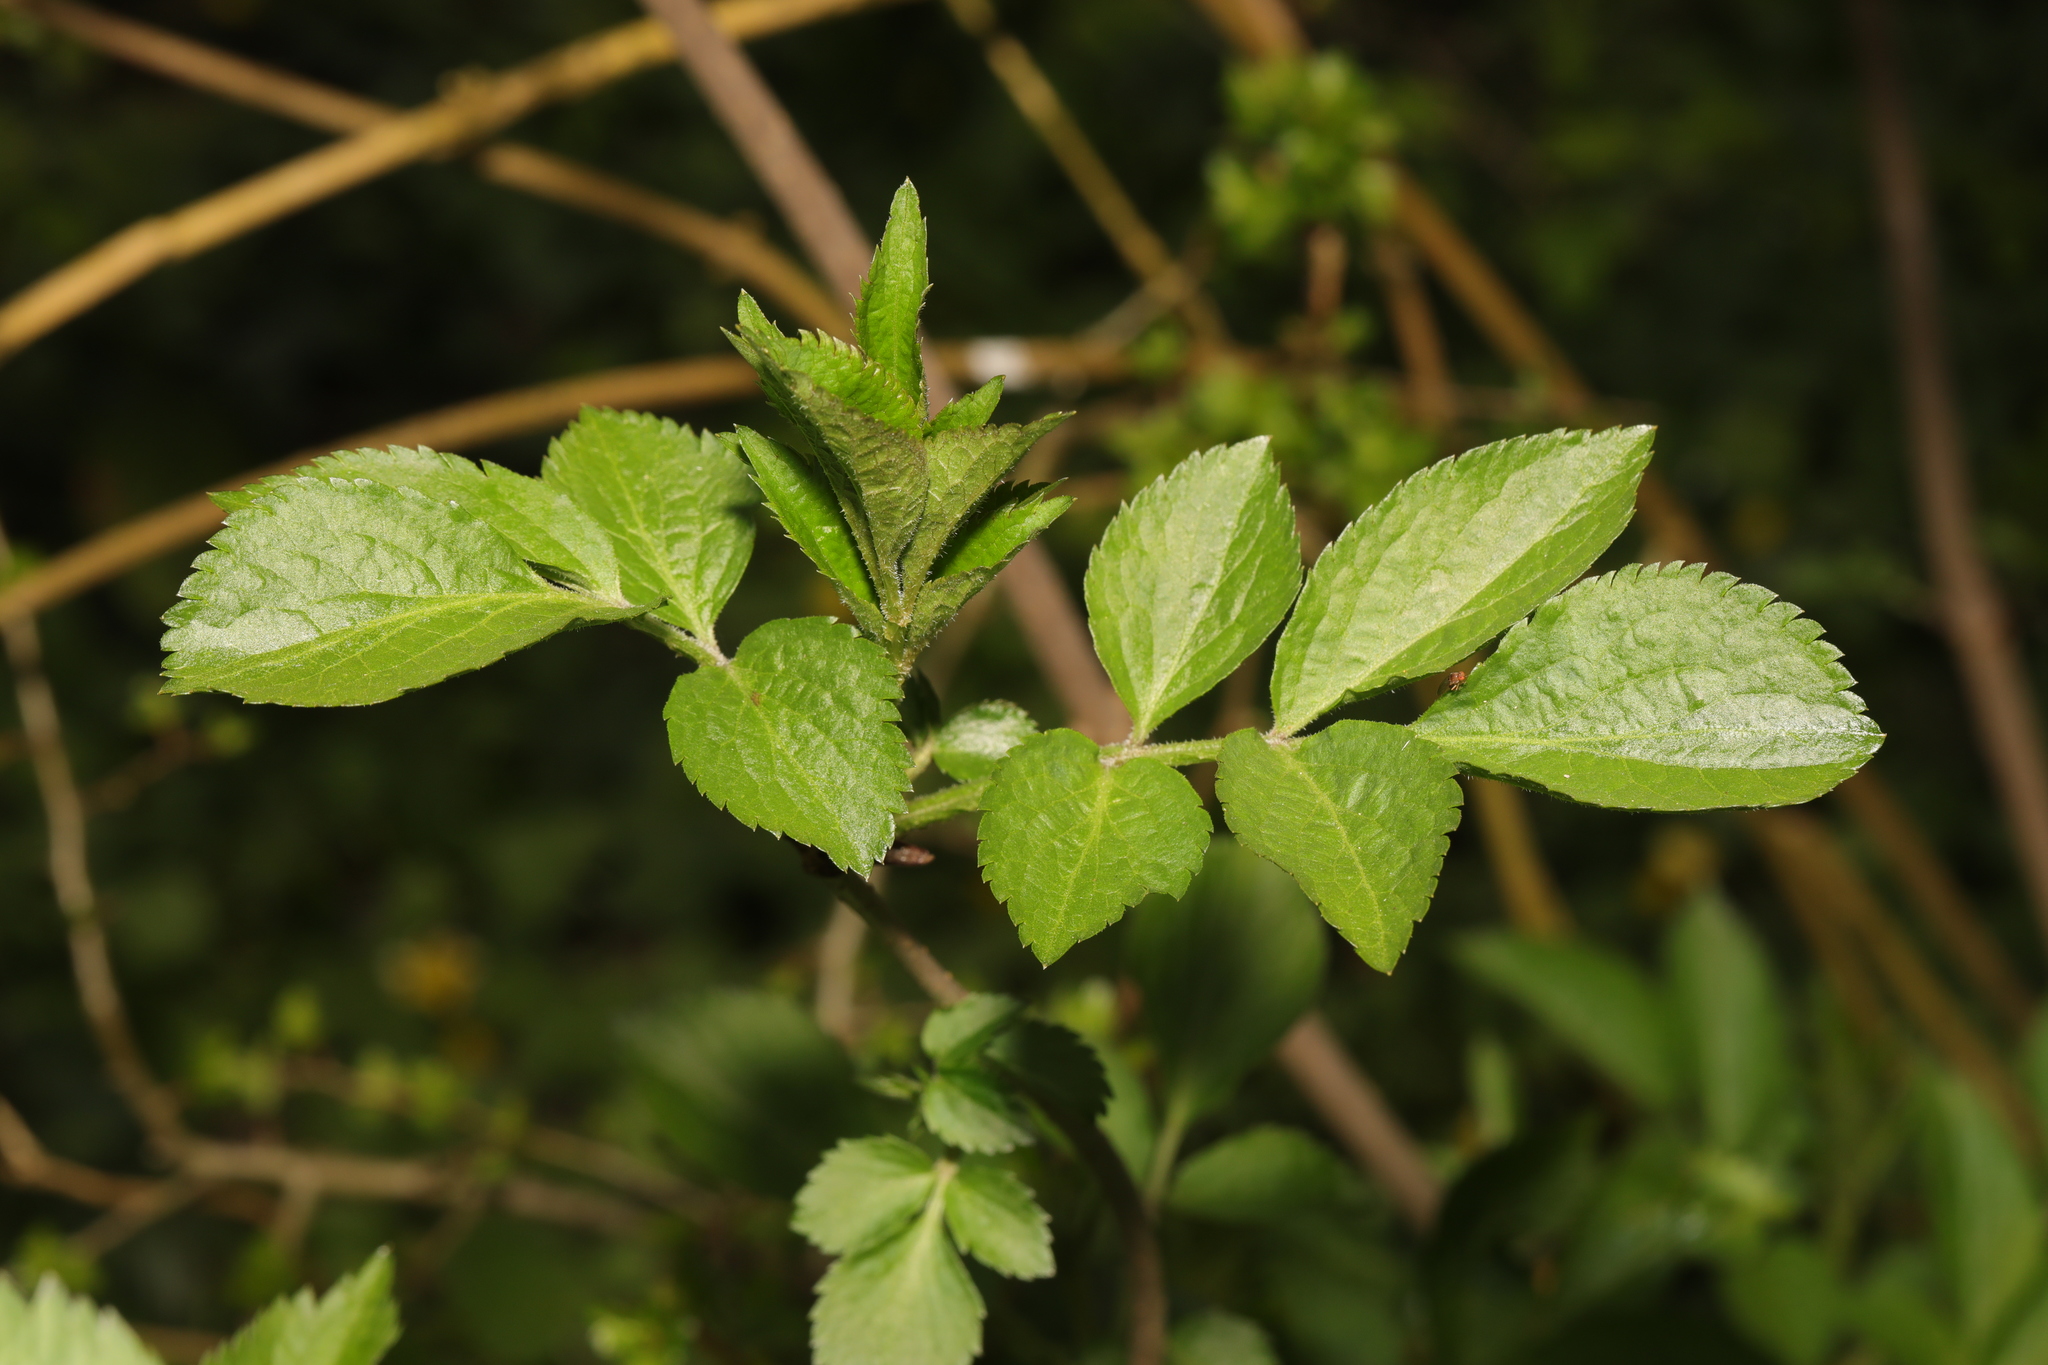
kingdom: Plantae
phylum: Tracheophyta
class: Magnoliopsida
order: Dipsacales
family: Viburnaceae
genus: Sambucus
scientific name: Sambucus nigra
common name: Elder
